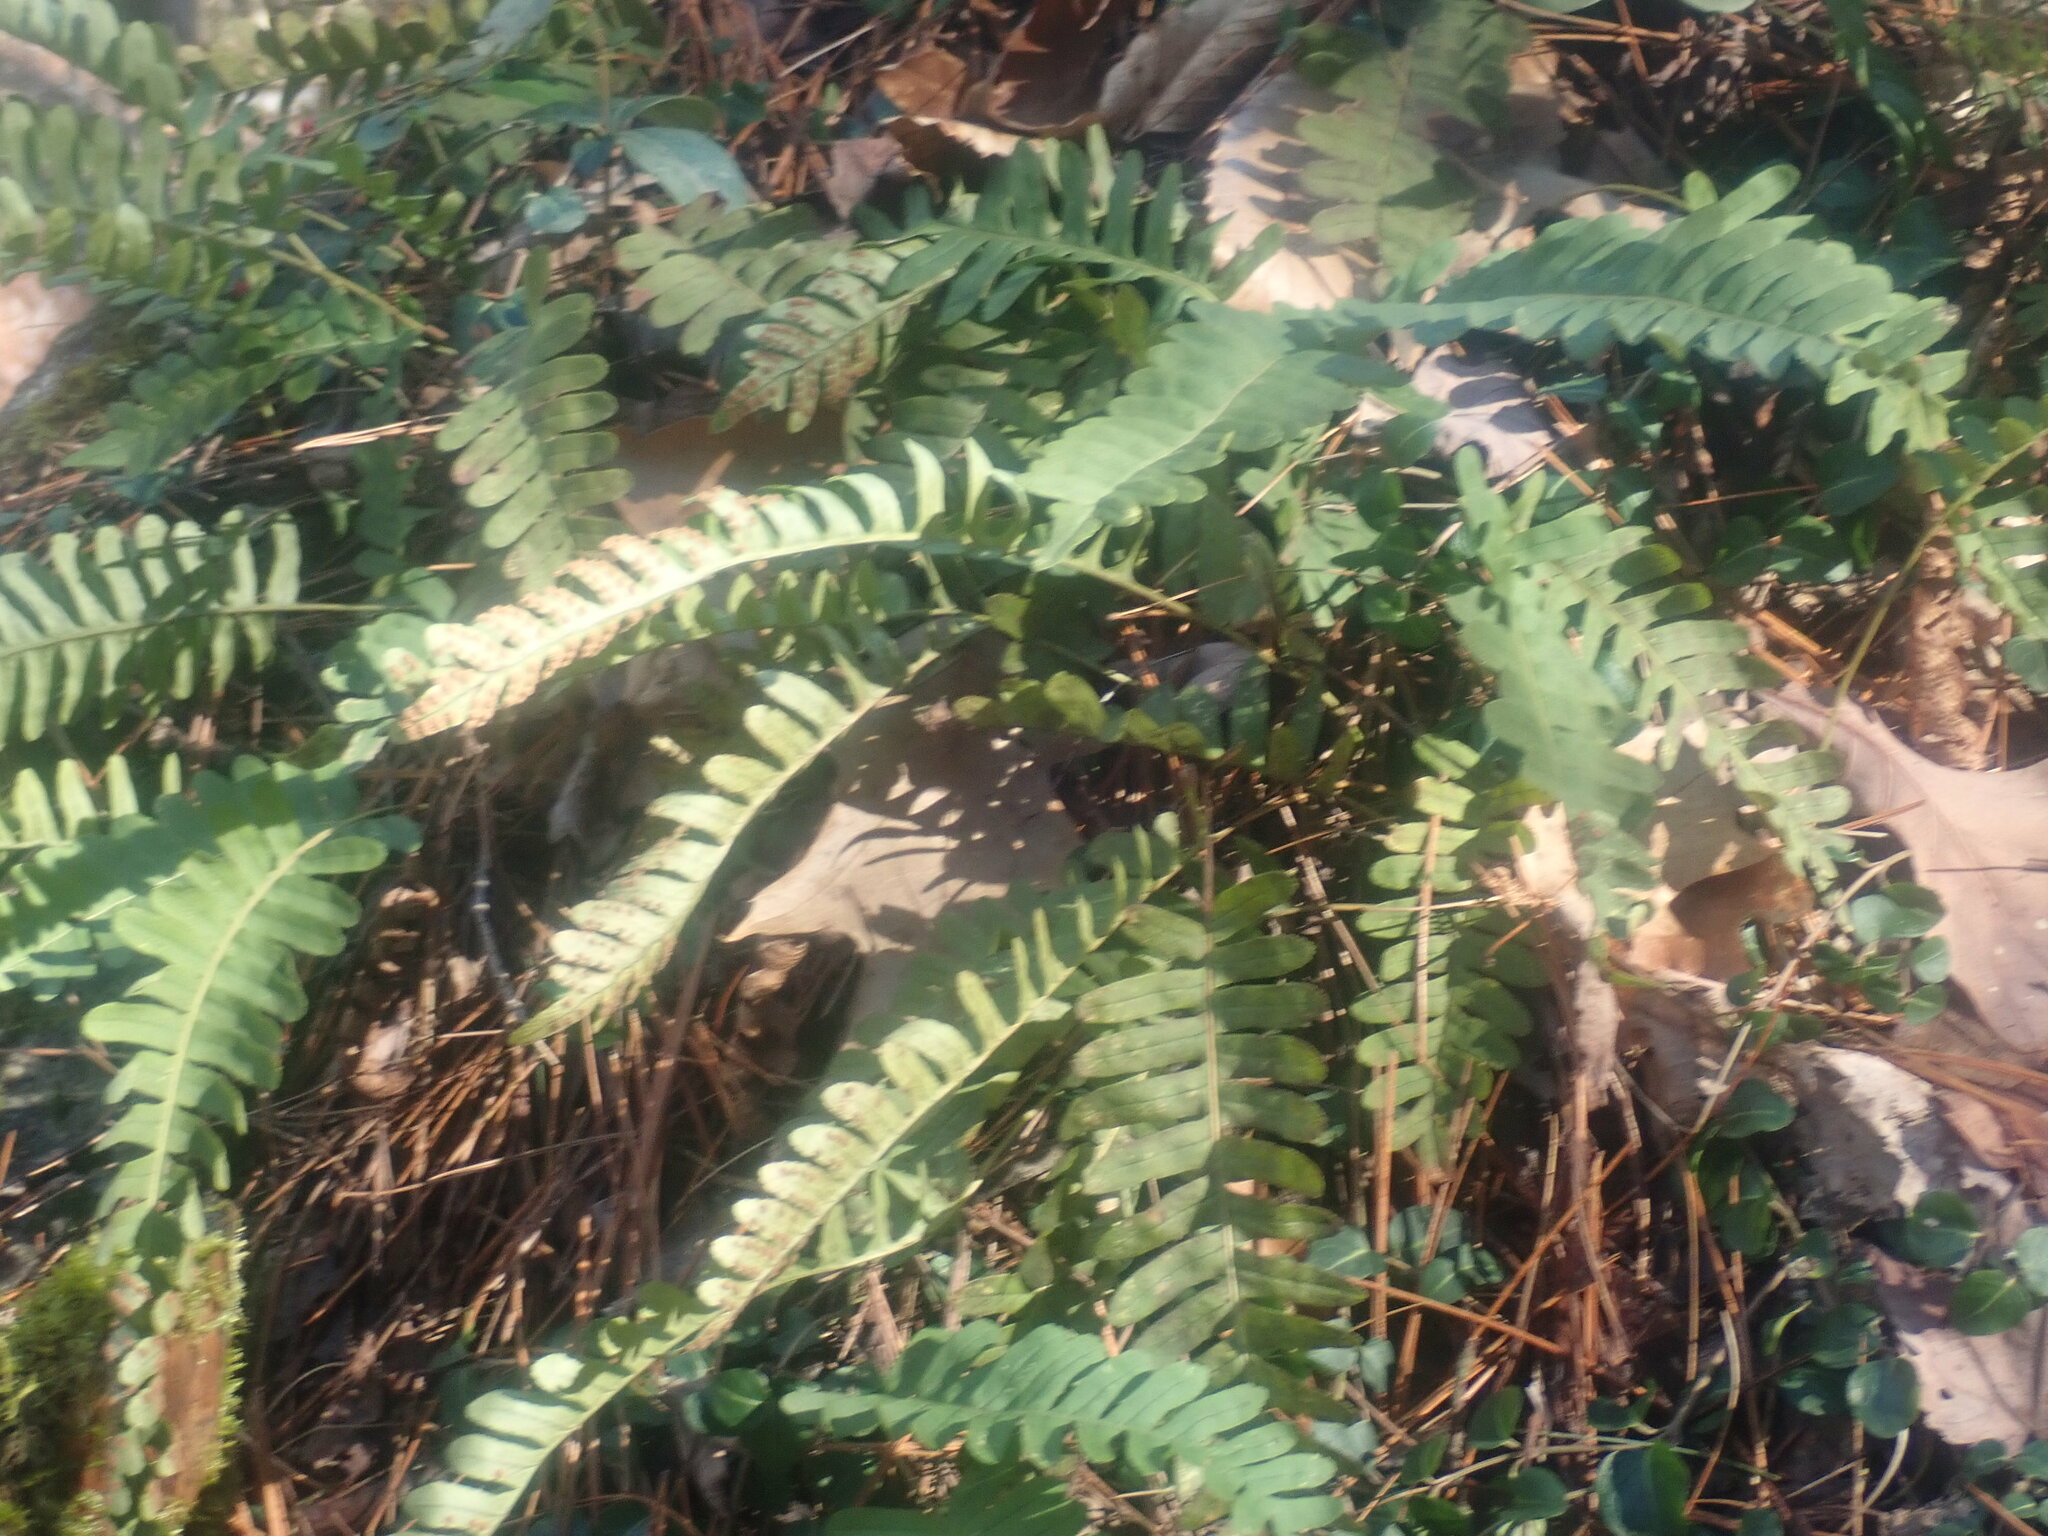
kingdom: Plantae
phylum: Tracheophyta
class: Polypodiopsida
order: Polypodiales
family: Polypodiaceae
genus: Polypodium
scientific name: Polypodium virginianum
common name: American wall fern
